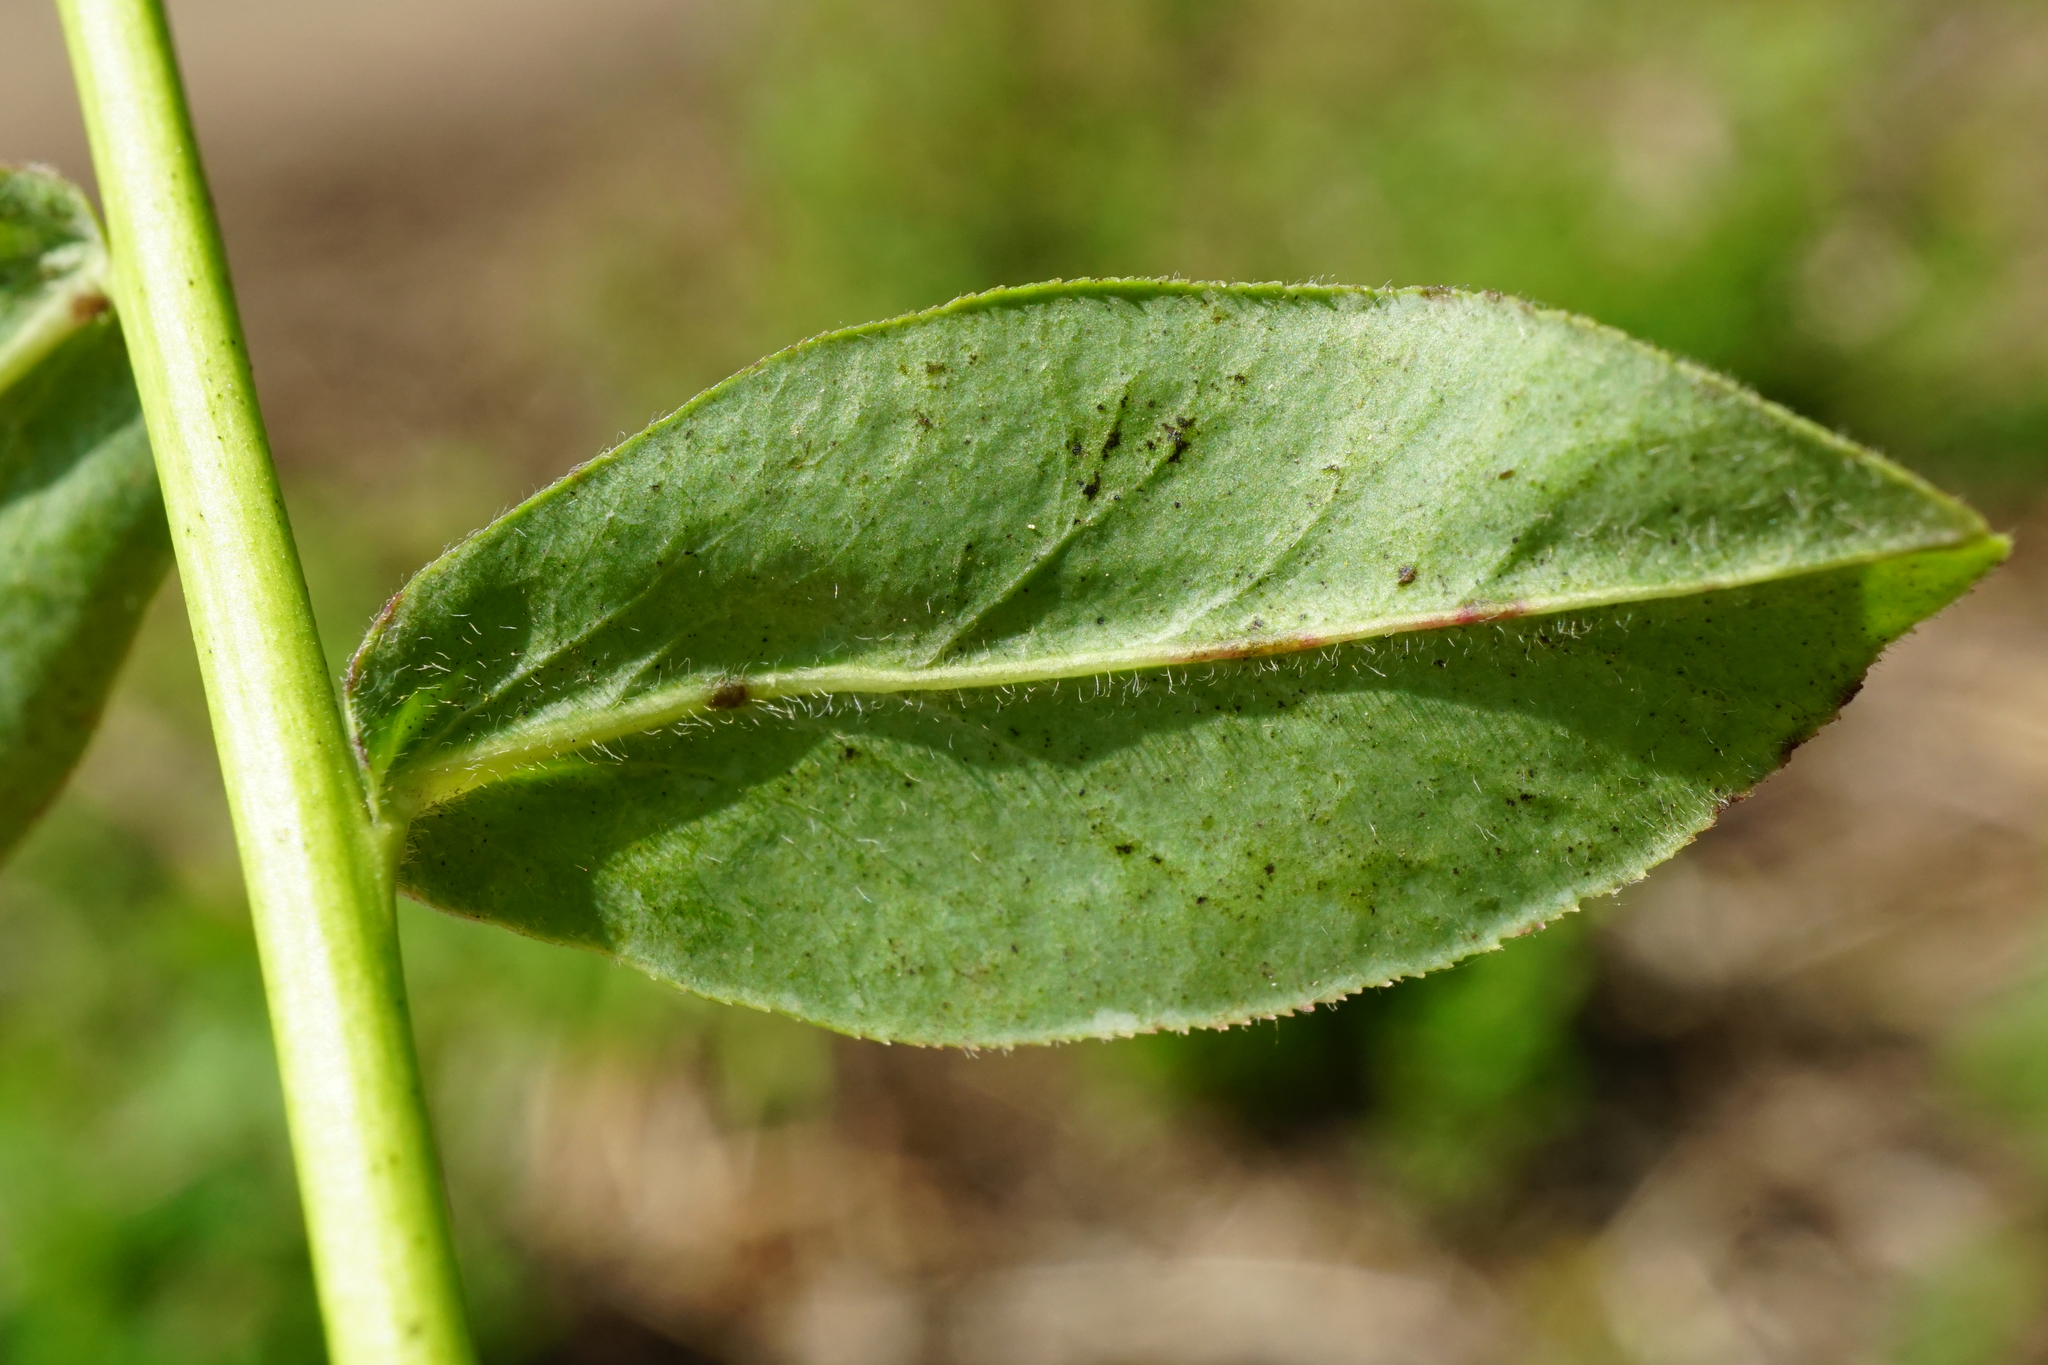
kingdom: Plantae
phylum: Tracheophyta
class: Magnoliopsida
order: Malpighiales
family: Euphorbiaceae
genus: Euphorbia
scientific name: Euphorbia verrucosa
